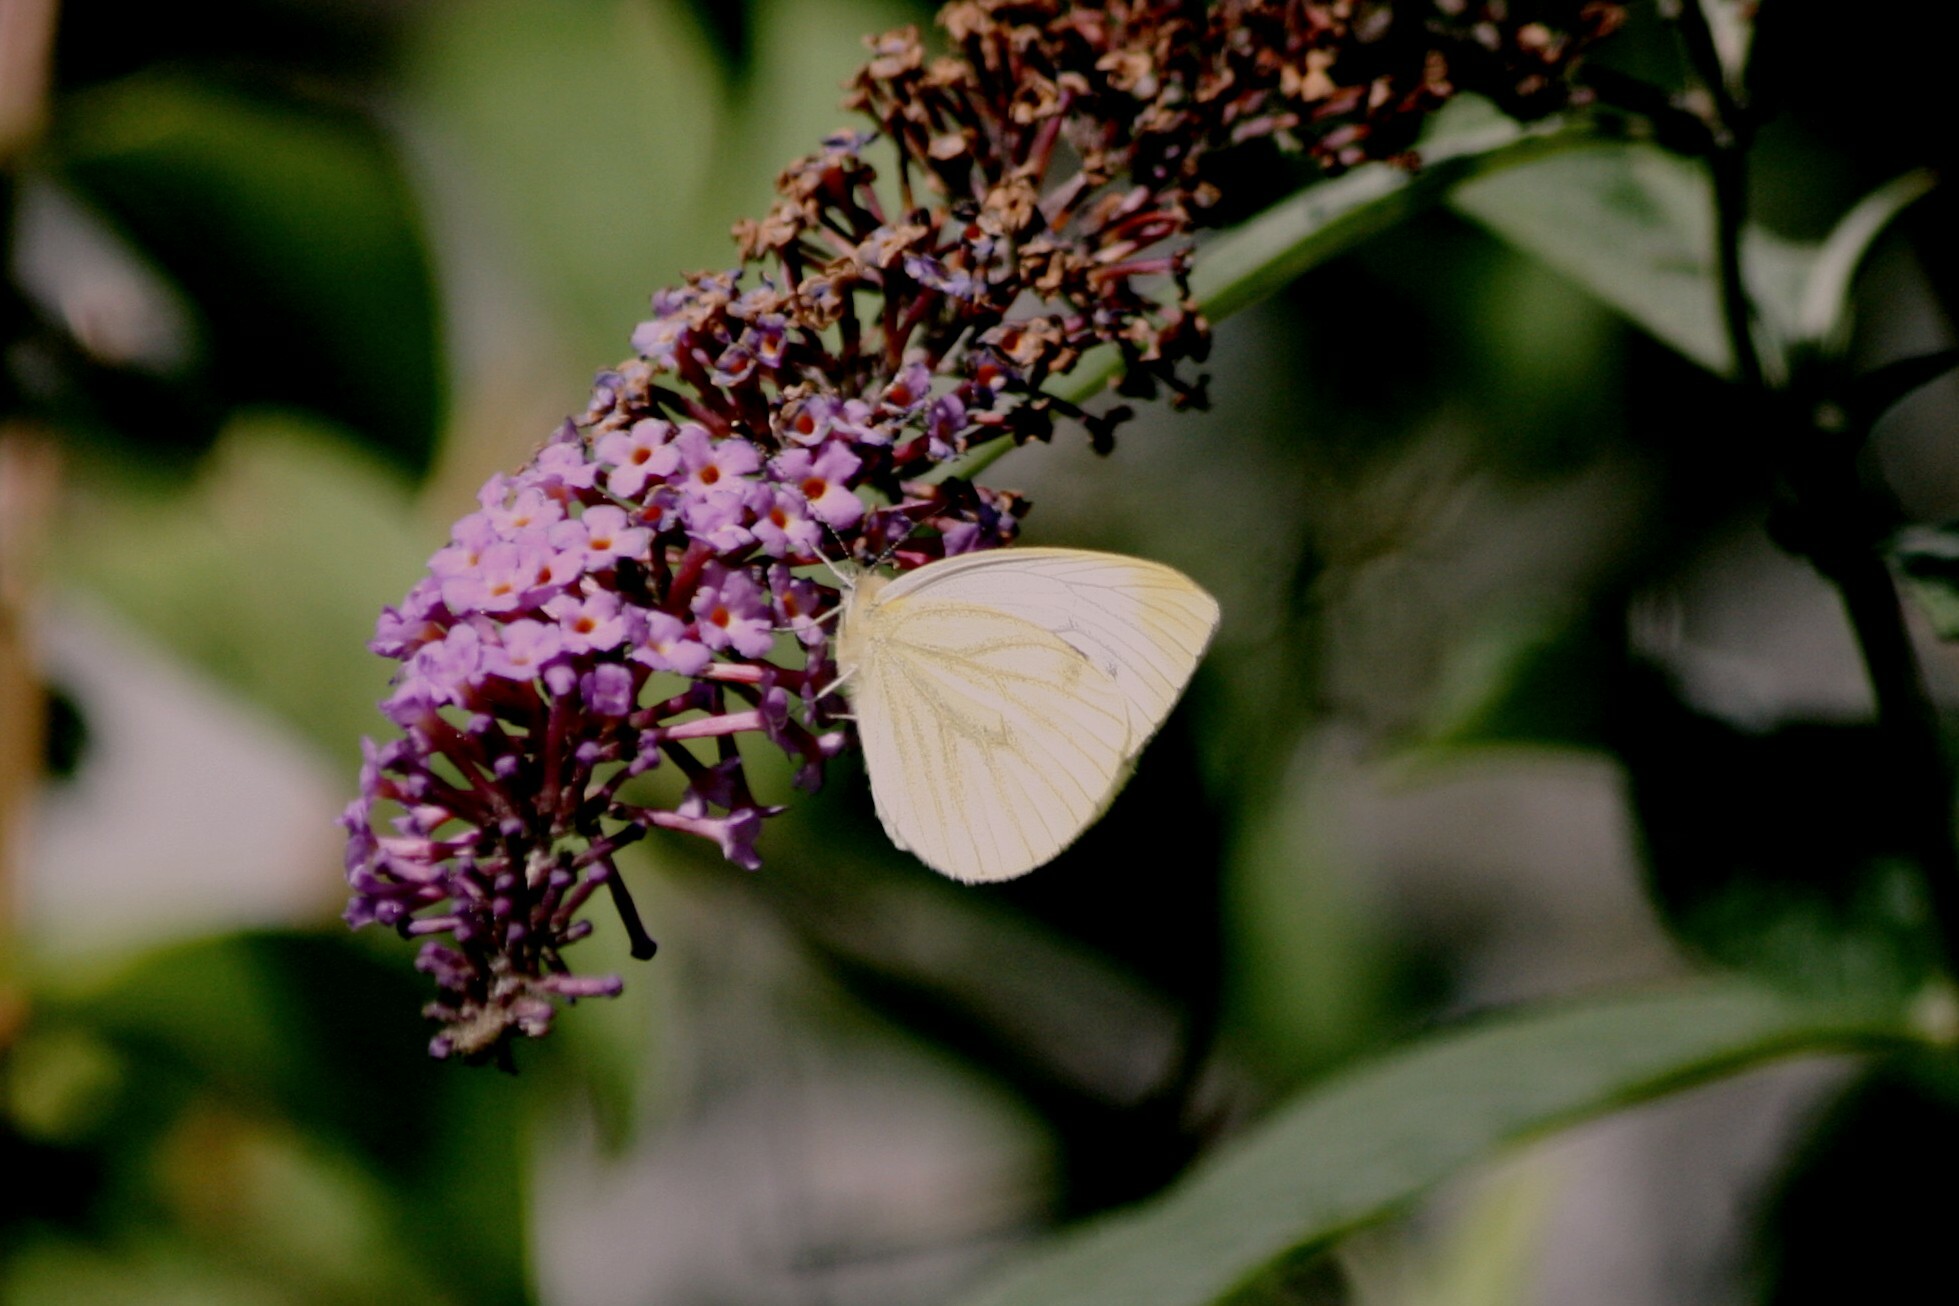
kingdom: Animalia
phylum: Arthropoda
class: Insecta
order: Lepidoptera
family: Pieridae
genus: Pieris
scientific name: Pieris napi
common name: Green-veined white
